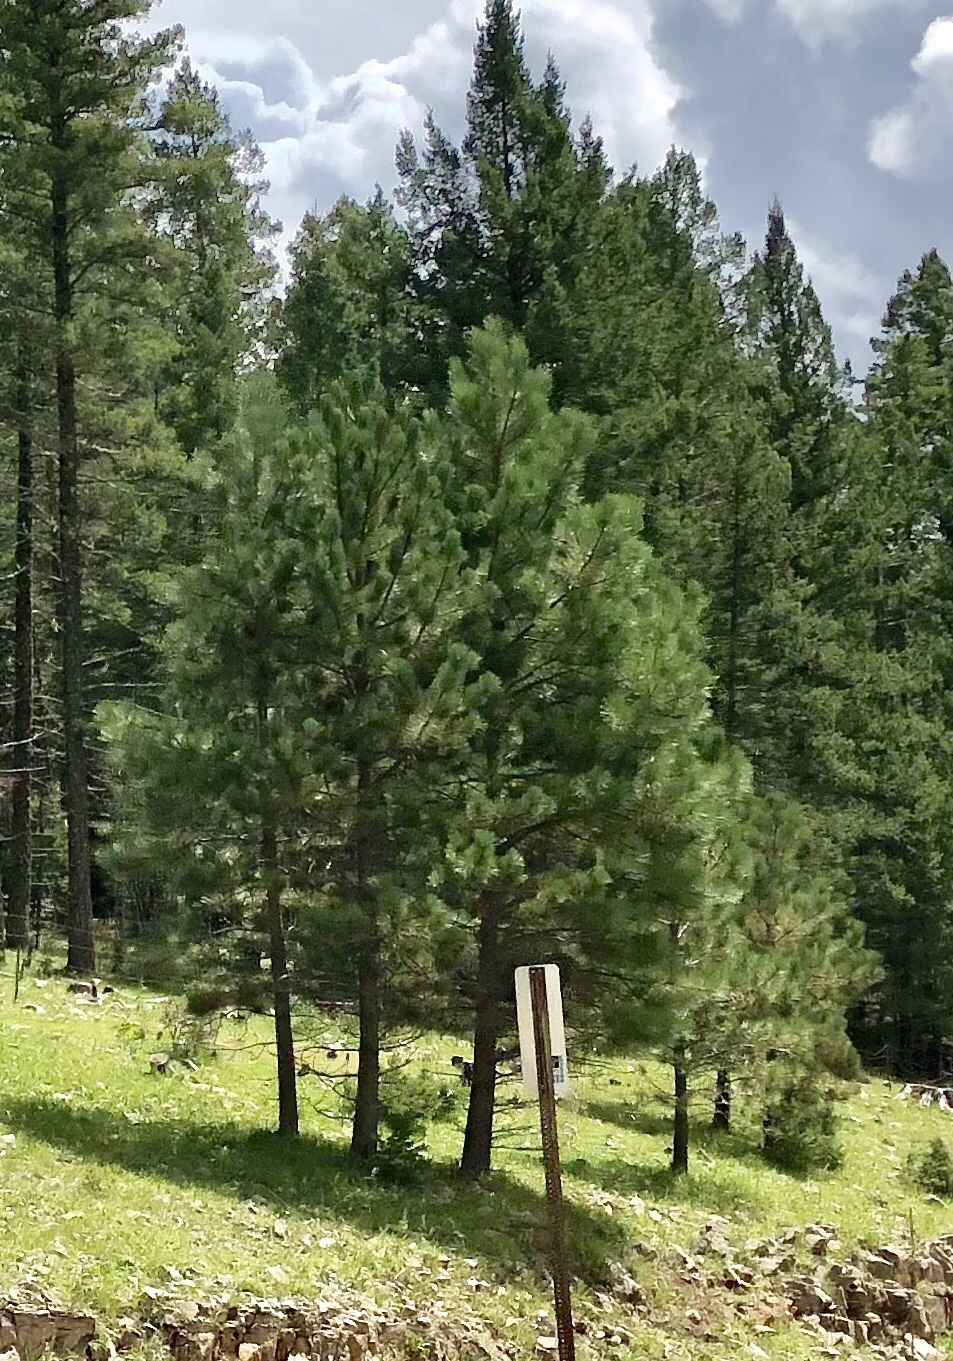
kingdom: Plantae
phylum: Tracheophyta
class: Pinopsida
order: Pinales
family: Pinaceae
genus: Pinus
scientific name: Pinus ponderosa
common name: Western yellow-pine
